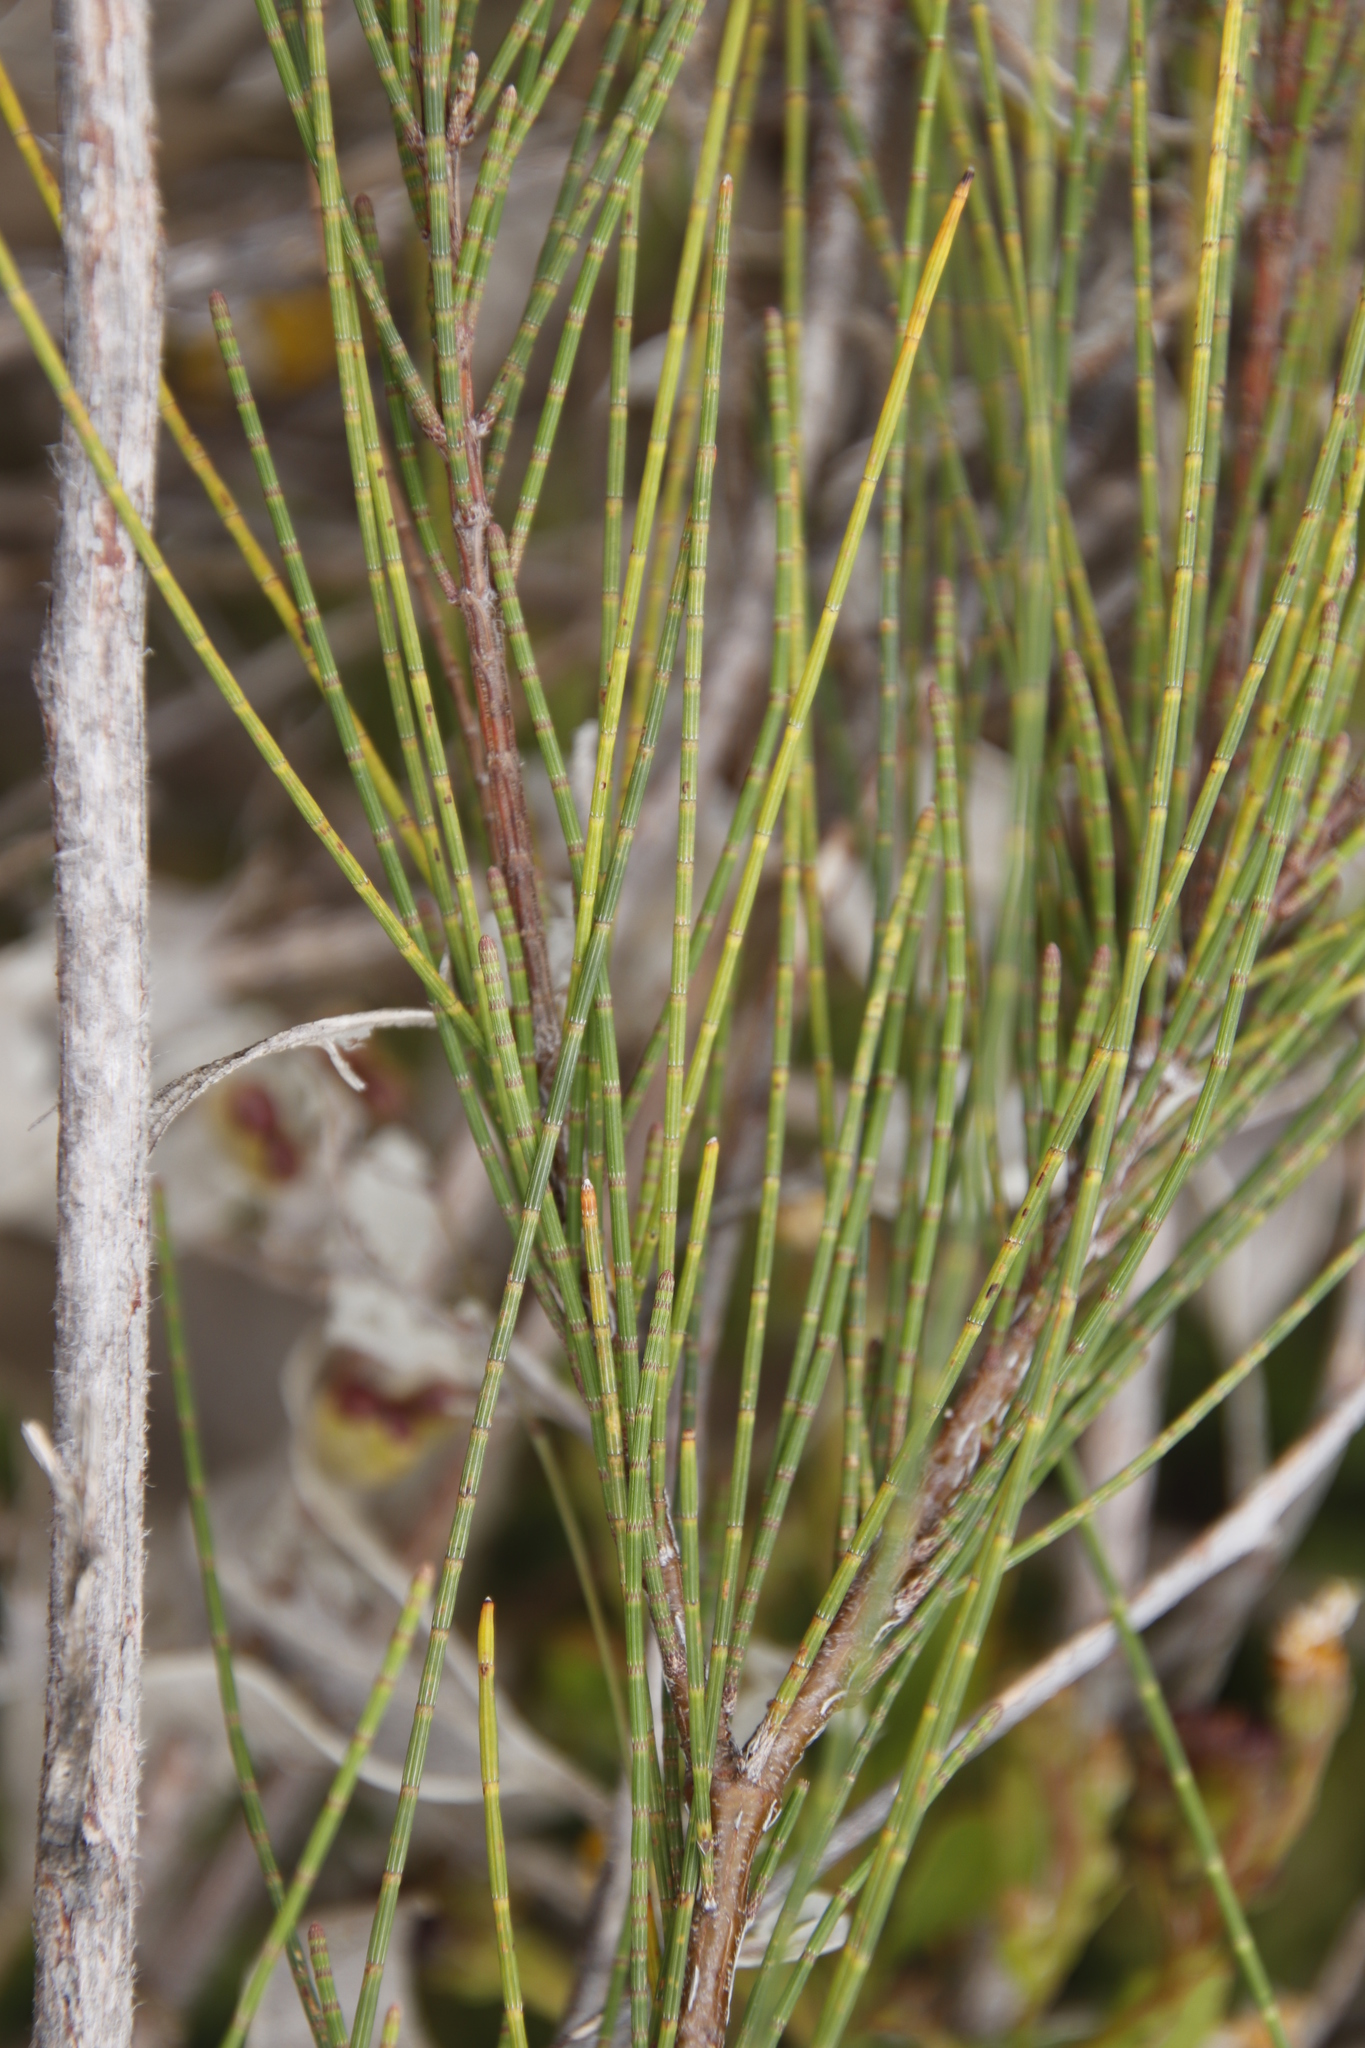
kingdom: Plantae
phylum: Tracheophyta
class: Magnoliopsida
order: Fagales
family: Casuarinaceae
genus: Casuarina
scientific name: Casuarina cunninghamiana
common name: River sheoak
